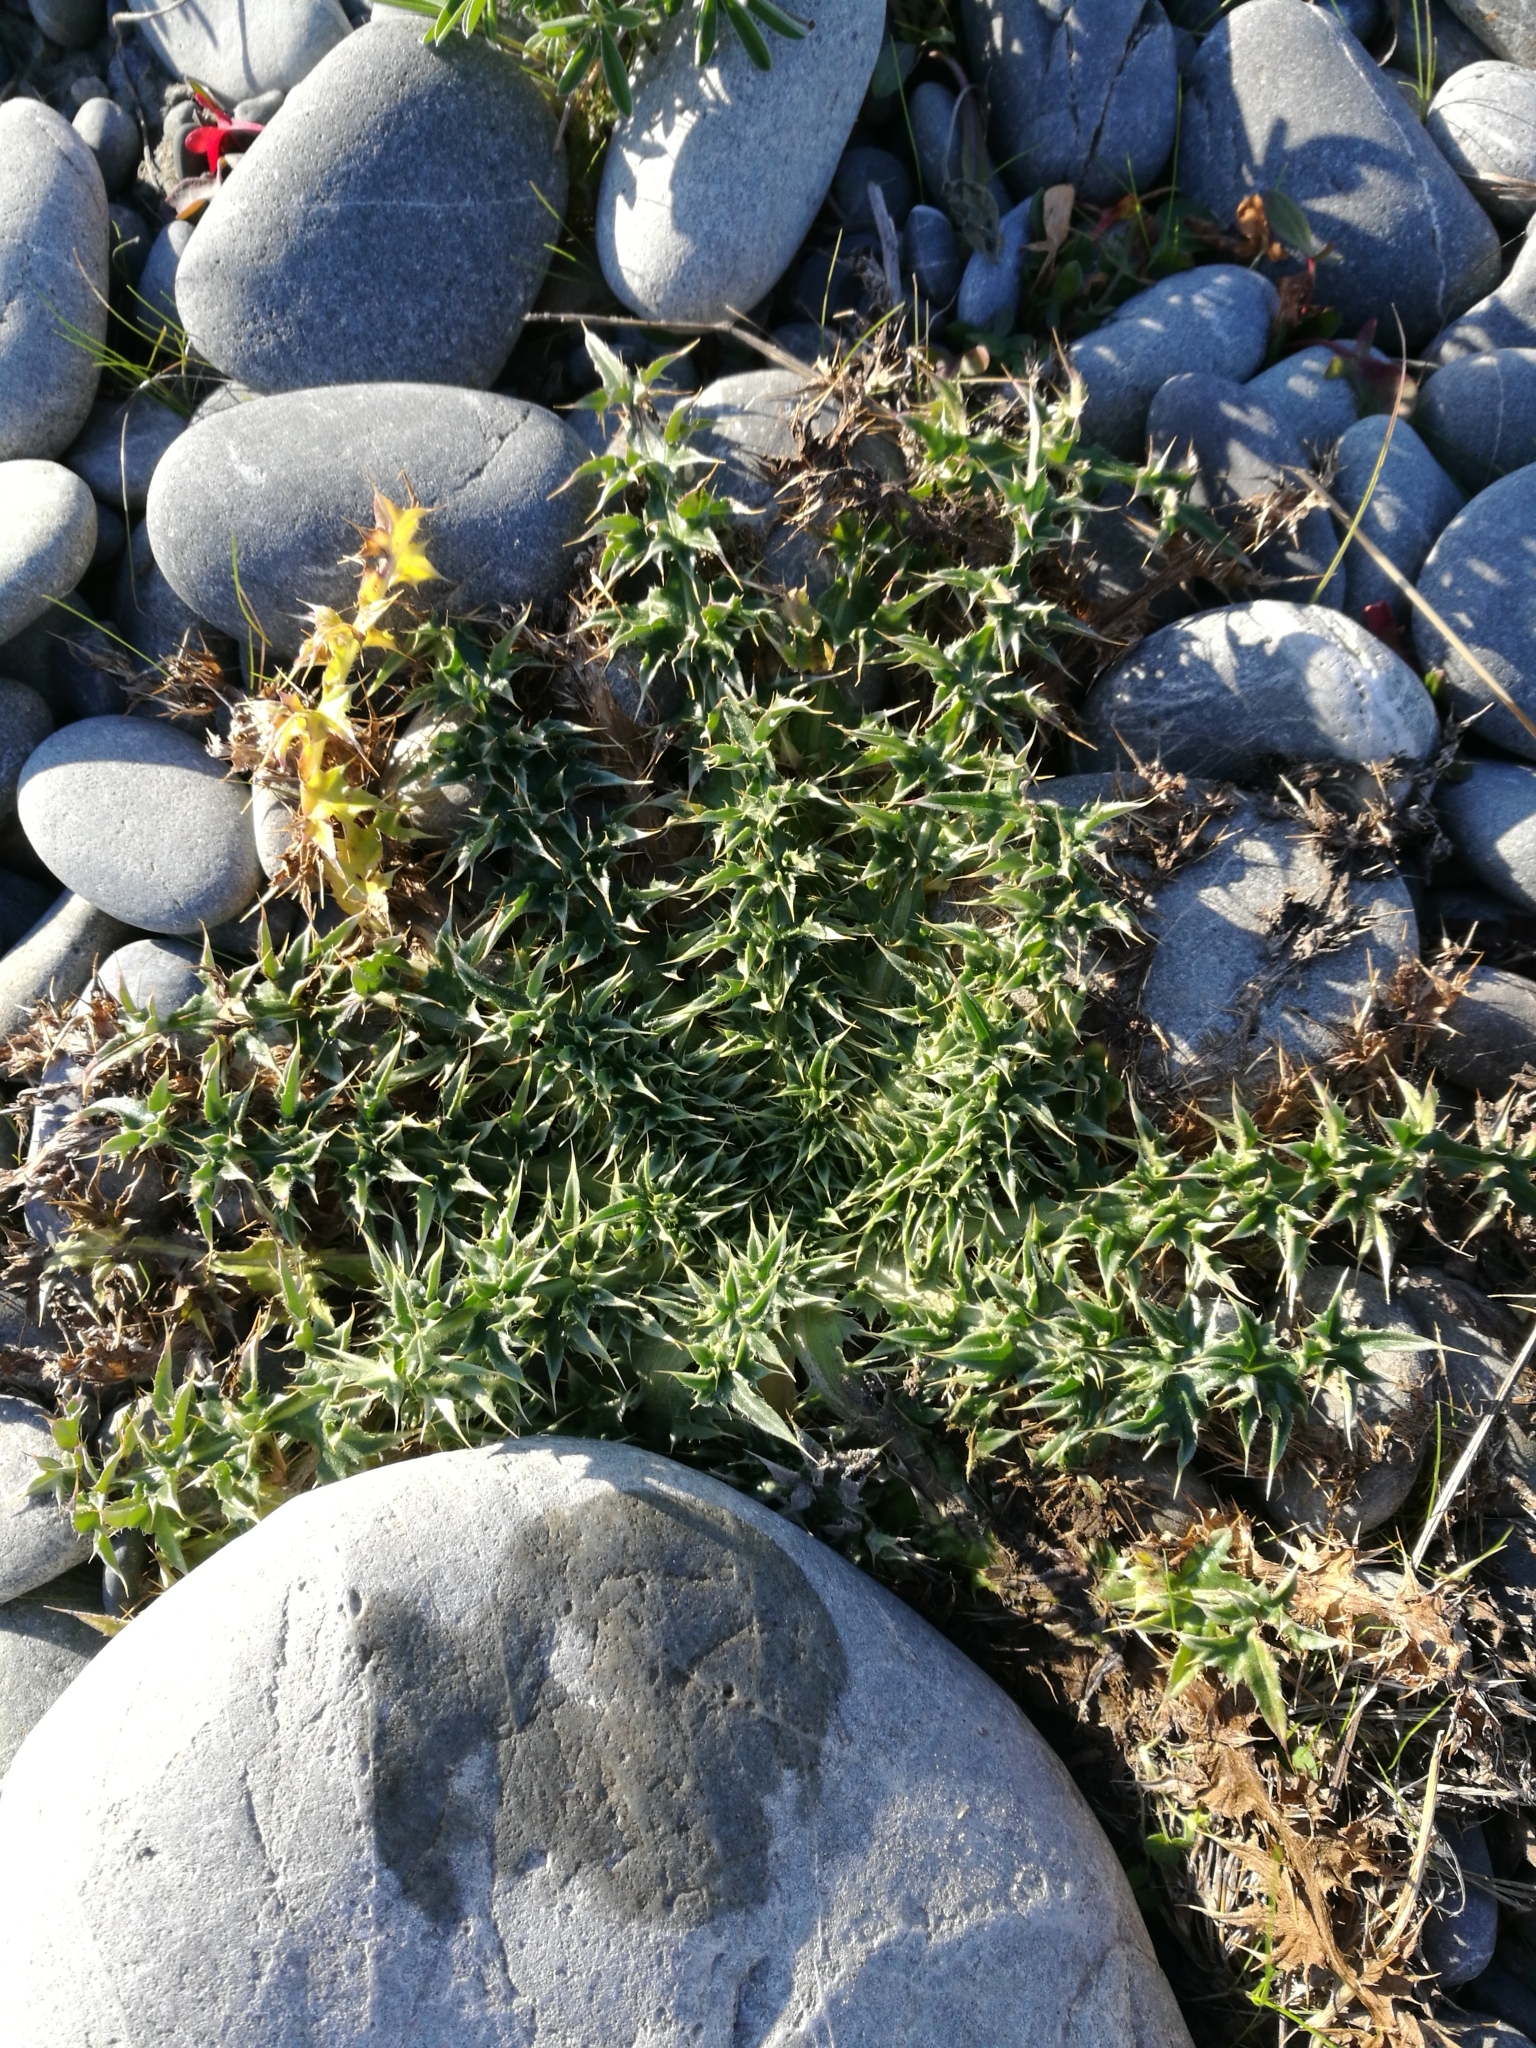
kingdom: Plantae
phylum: Tracheophyta
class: Magnoliopsida
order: Asterales
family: Asteraceae
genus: Carduus
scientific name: Carduus nutans
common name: Musk thistle
